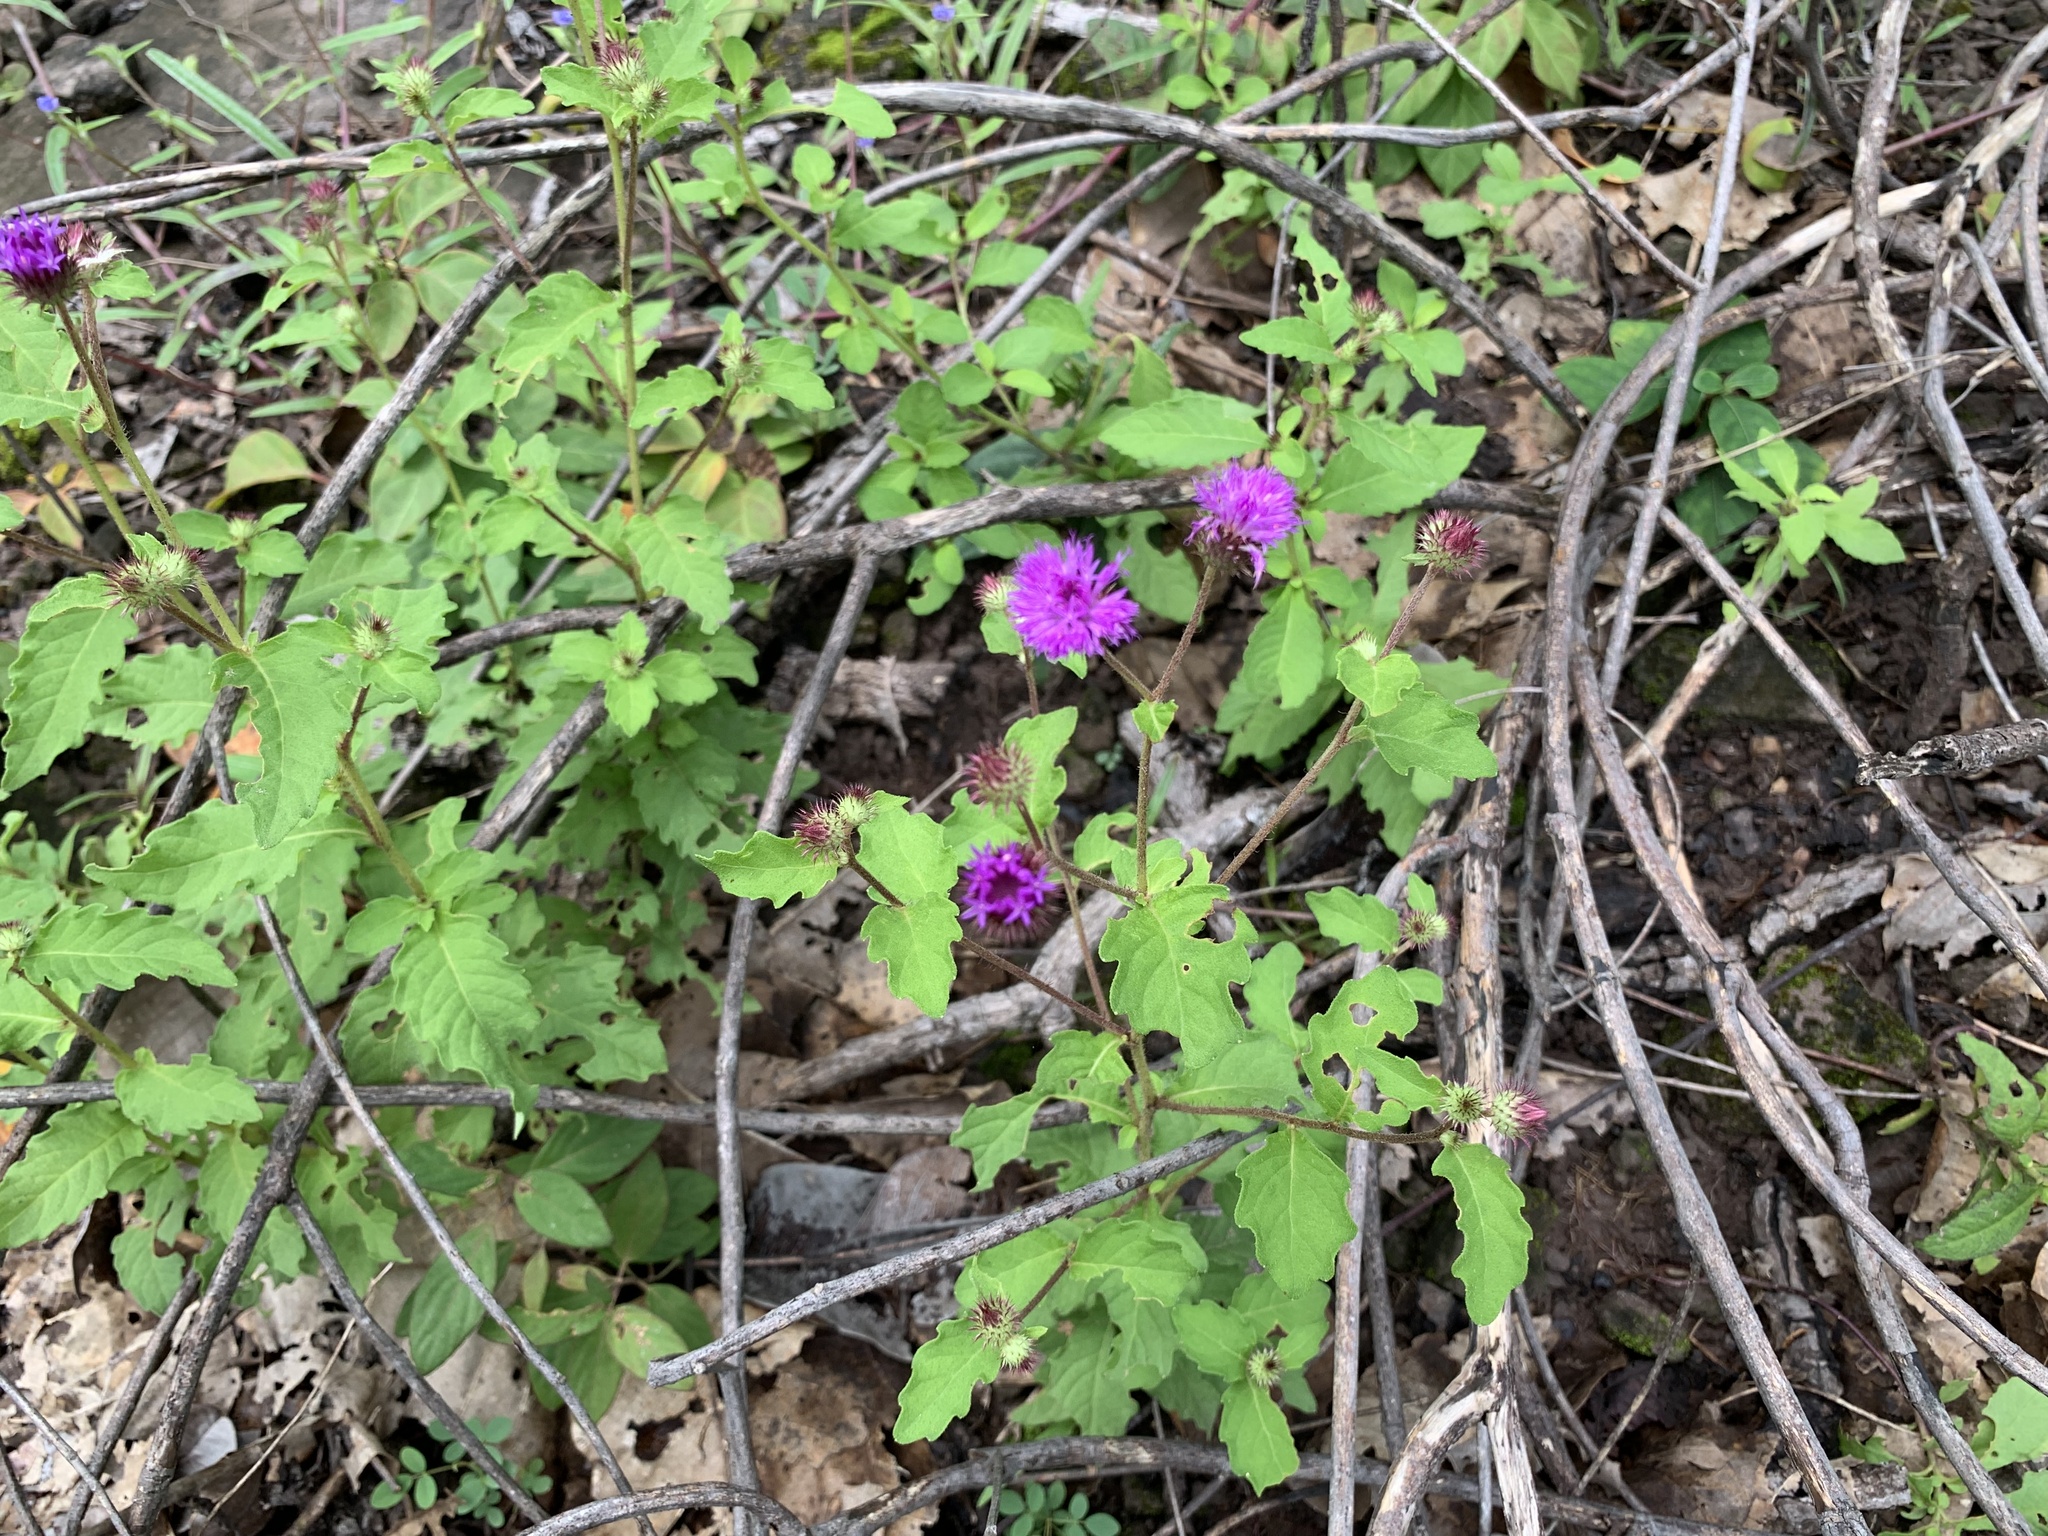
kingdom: Plantae
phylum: Tracheophyta
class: Magnoliopsida
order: Asterales
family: Asteraceae
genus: Centratherum
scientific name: Centratherum punctatum
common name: Larkdaisy
